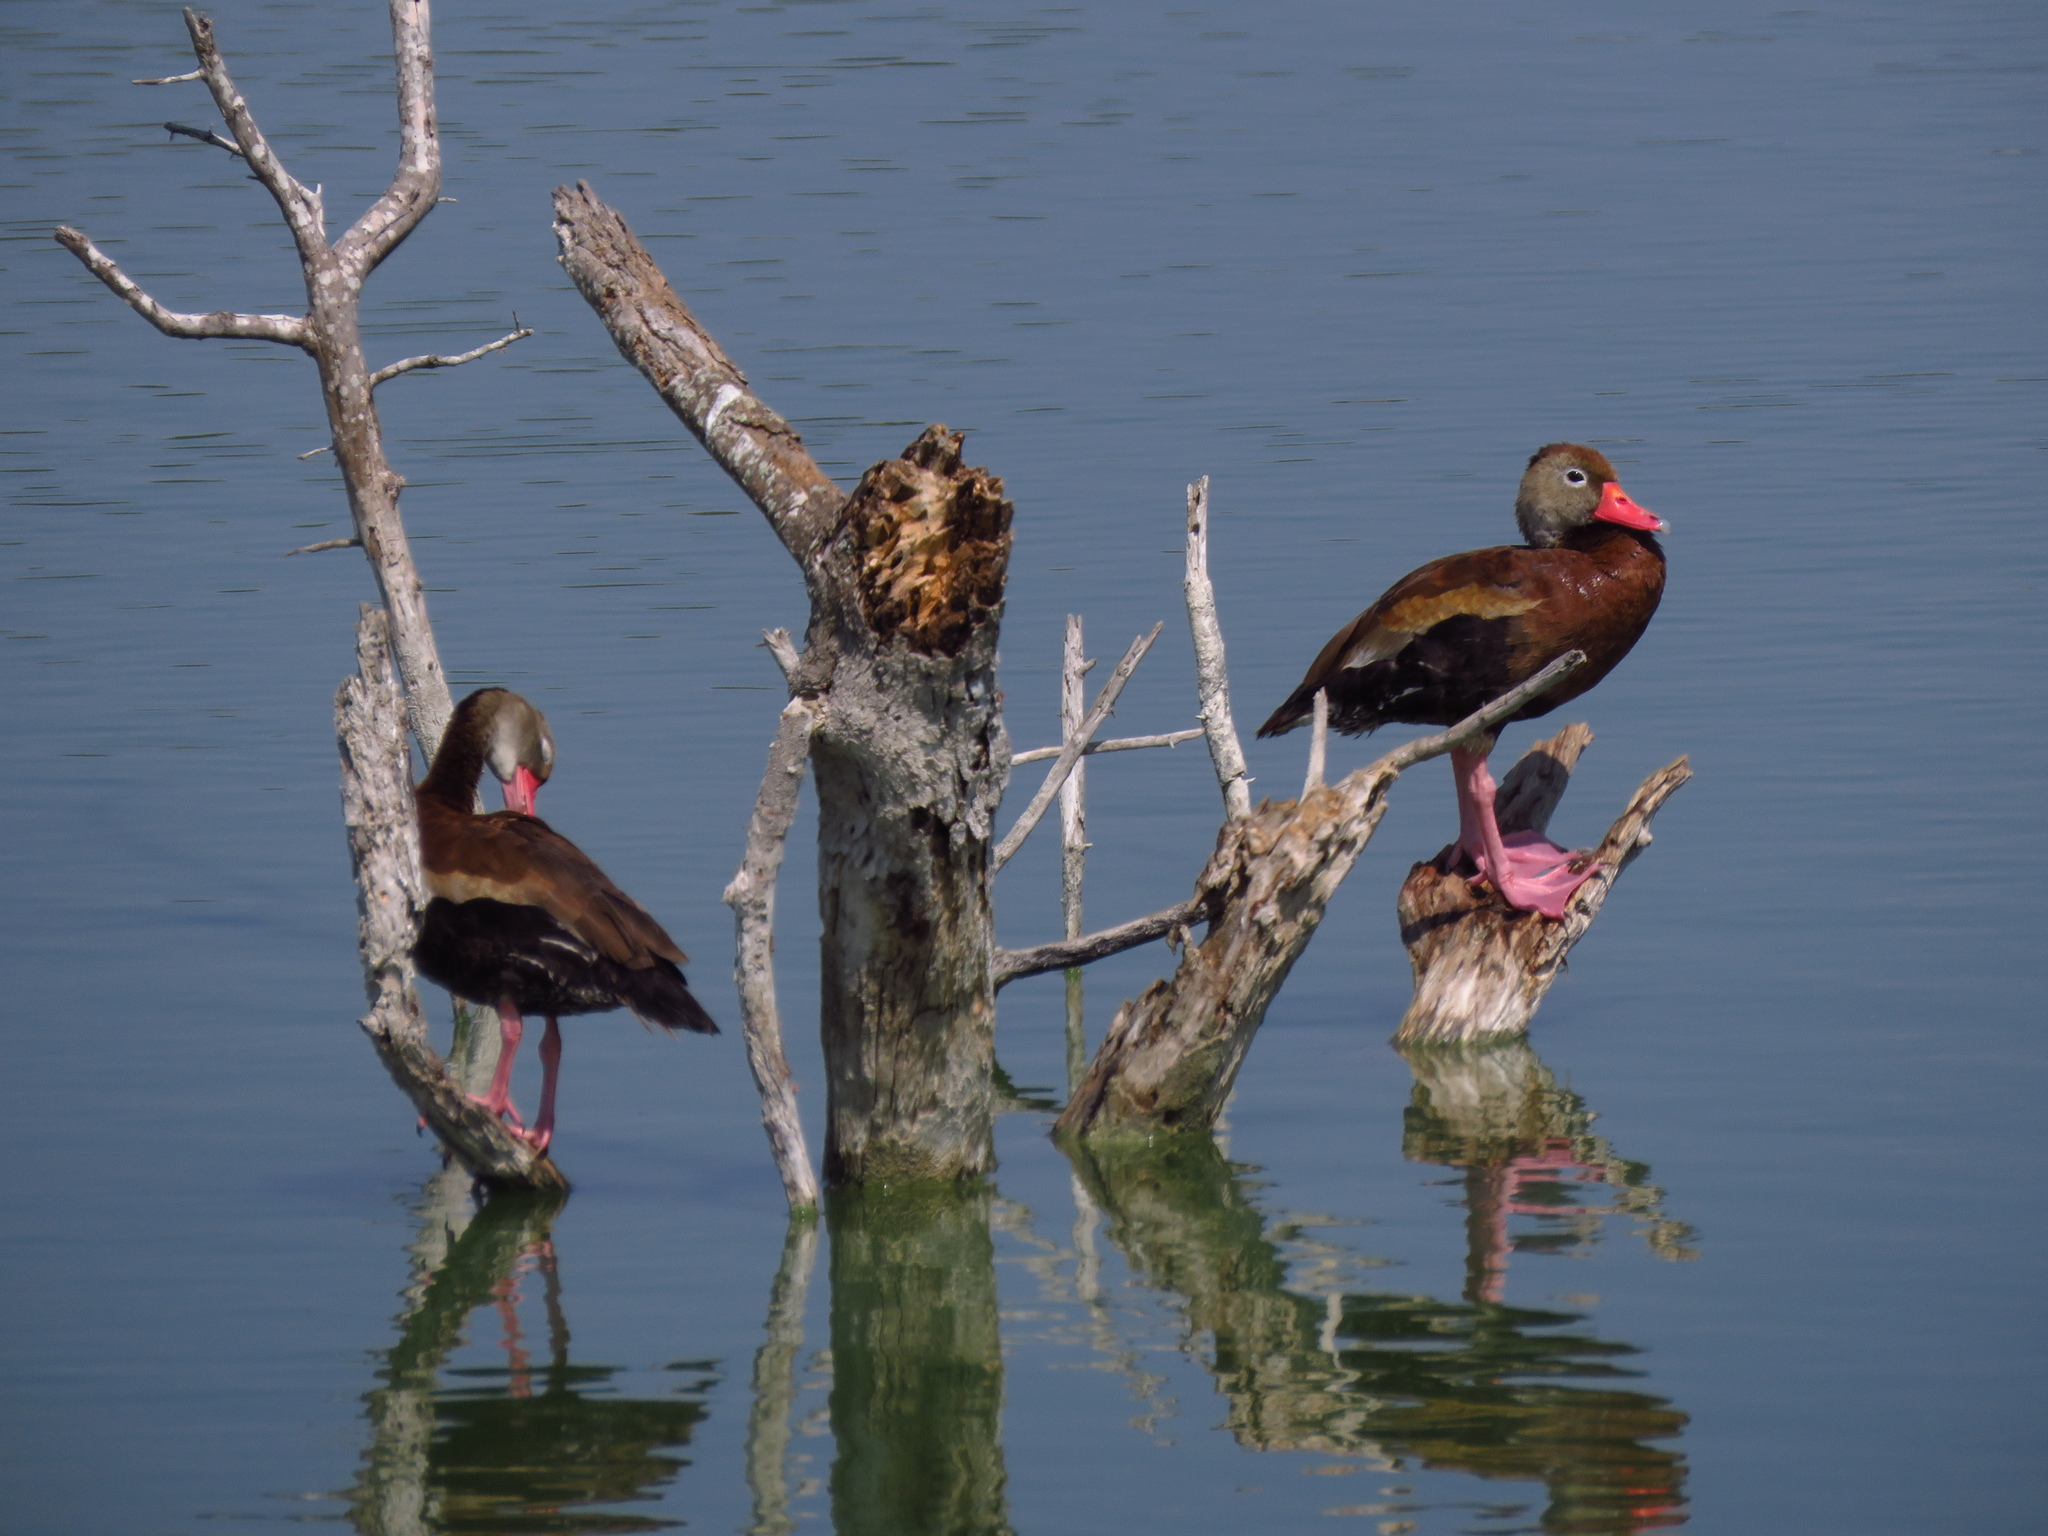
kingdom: Animalia
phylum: Chordata
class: Aves
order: Anseriformes
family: Anatidae
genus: Dendrocygna
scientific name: Dendrocygna autumnalis
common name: Black-bellied whistling duck
